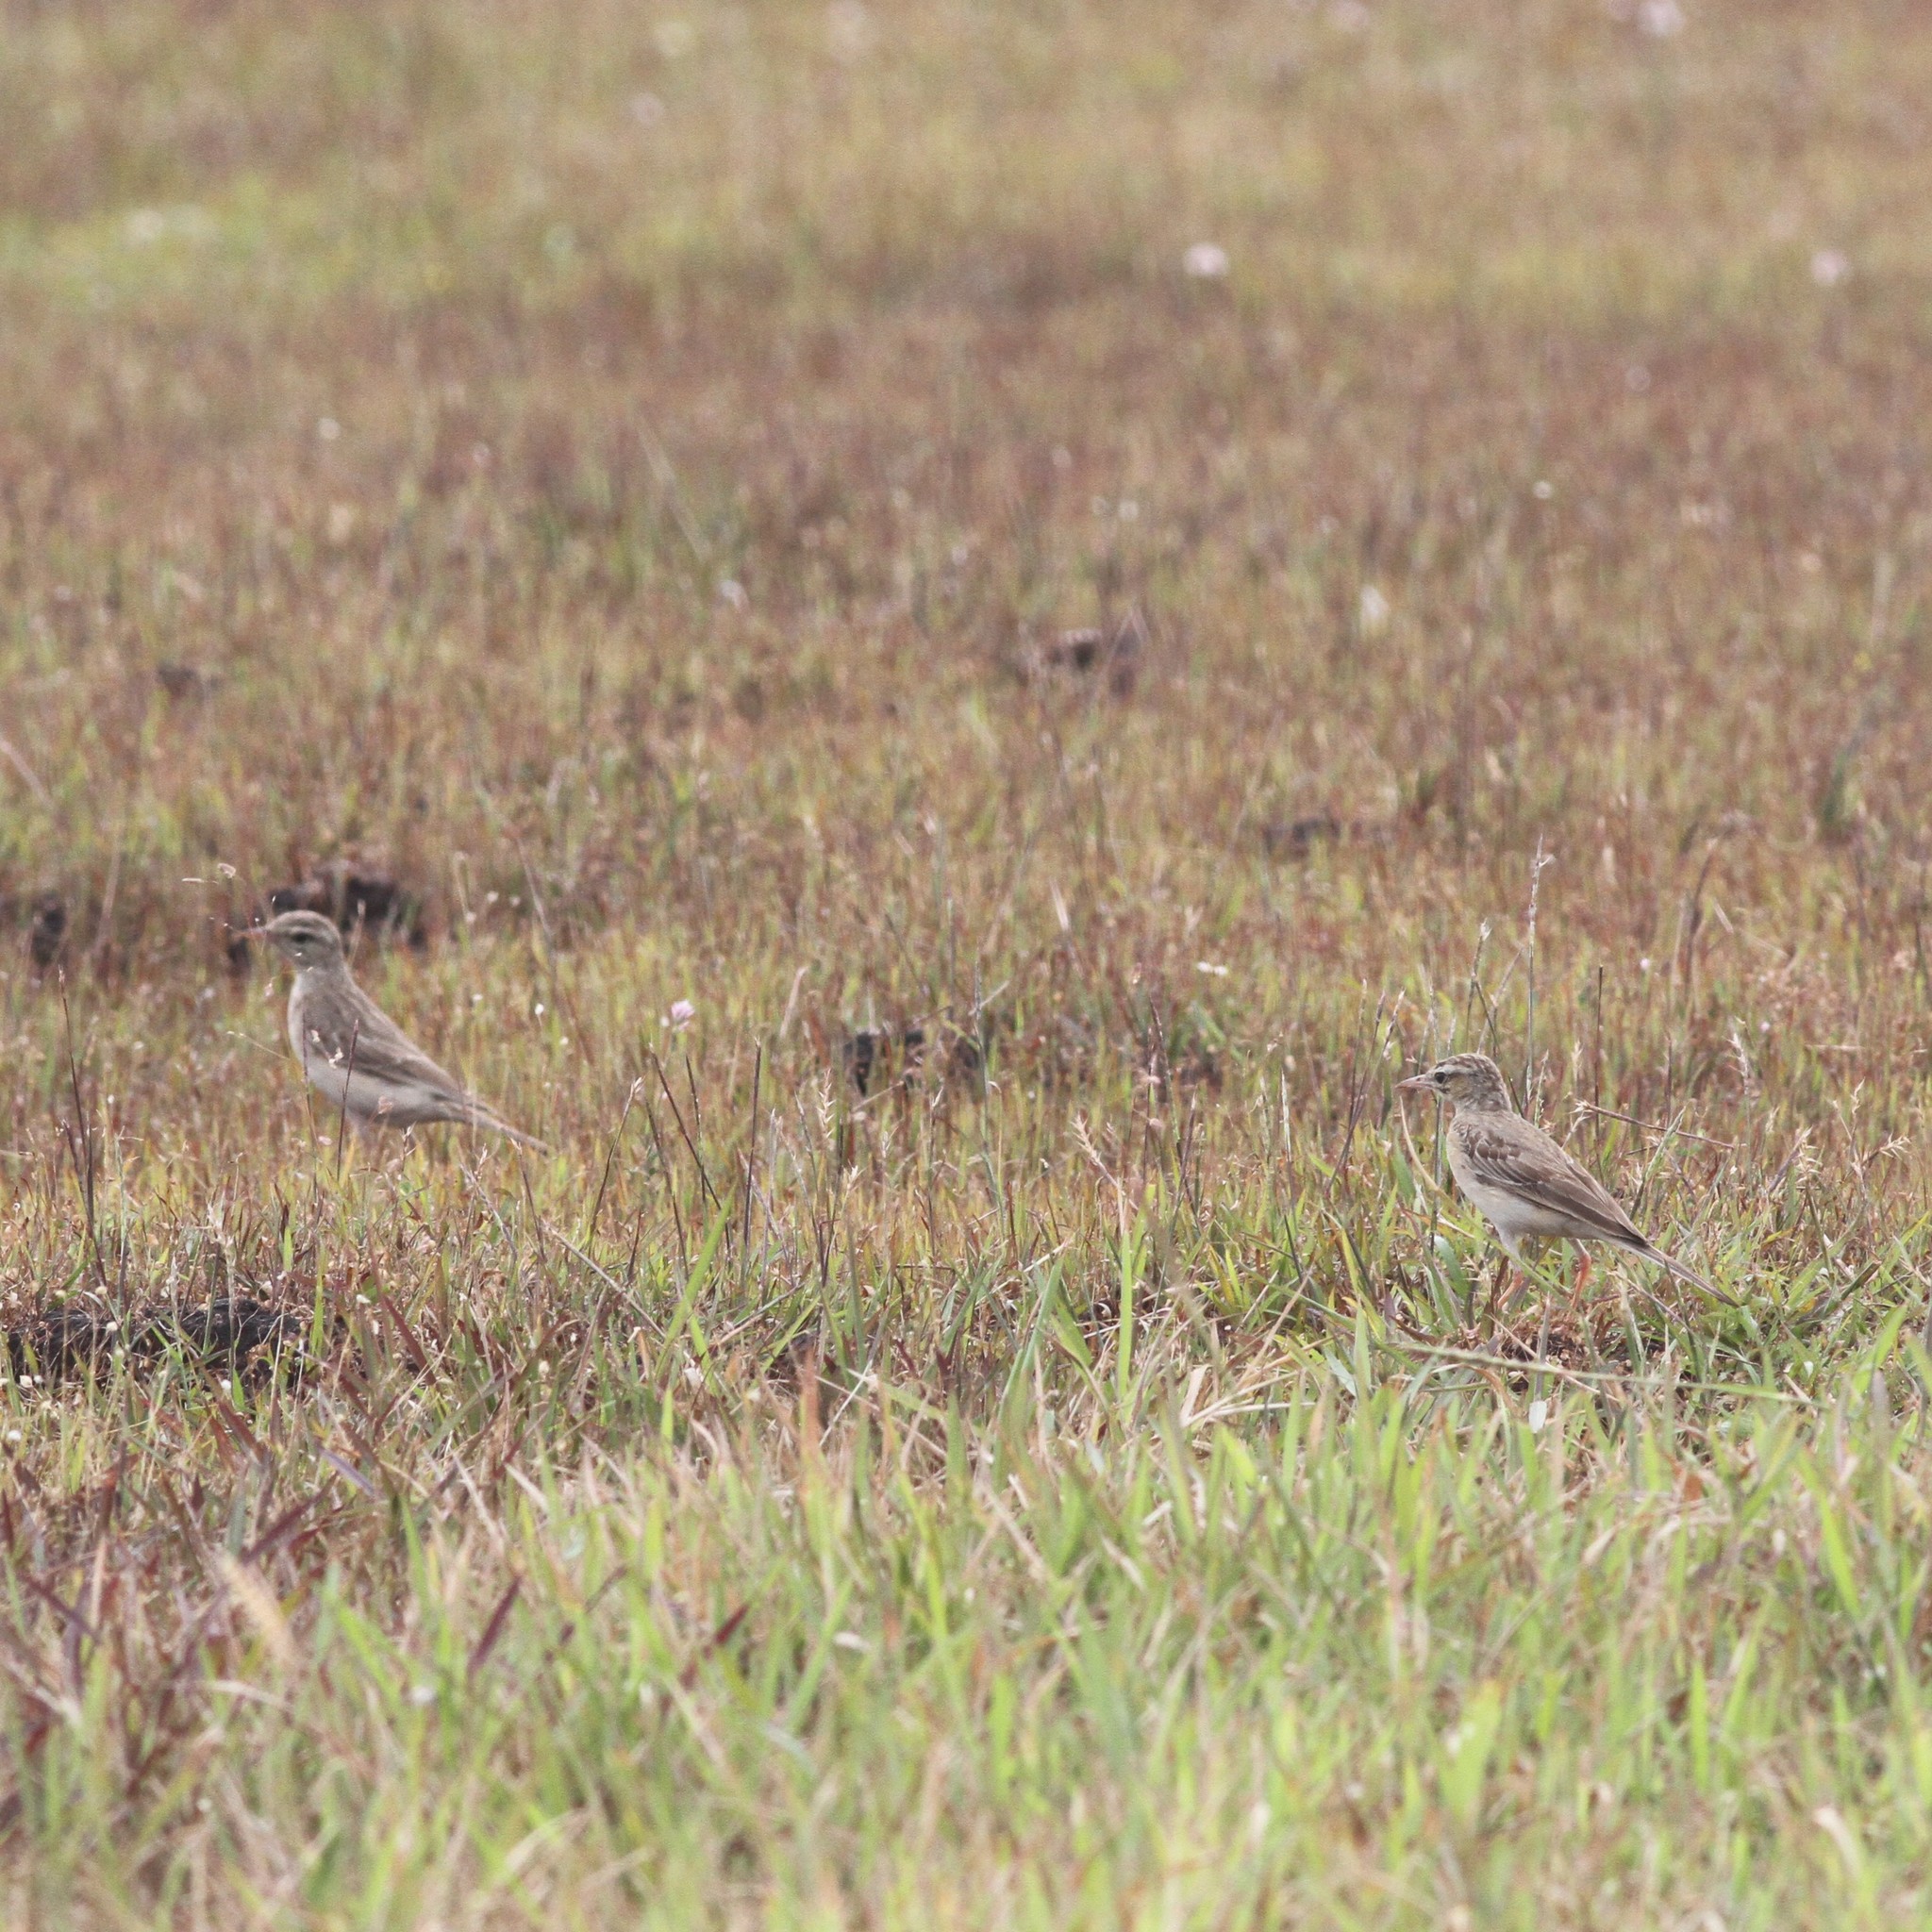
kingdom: Animalia
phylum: Chordata
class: Aves
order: Passeriformes
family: Motacillidae
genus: Anthus
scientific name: Anthus campestris
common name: Tawny pipit
